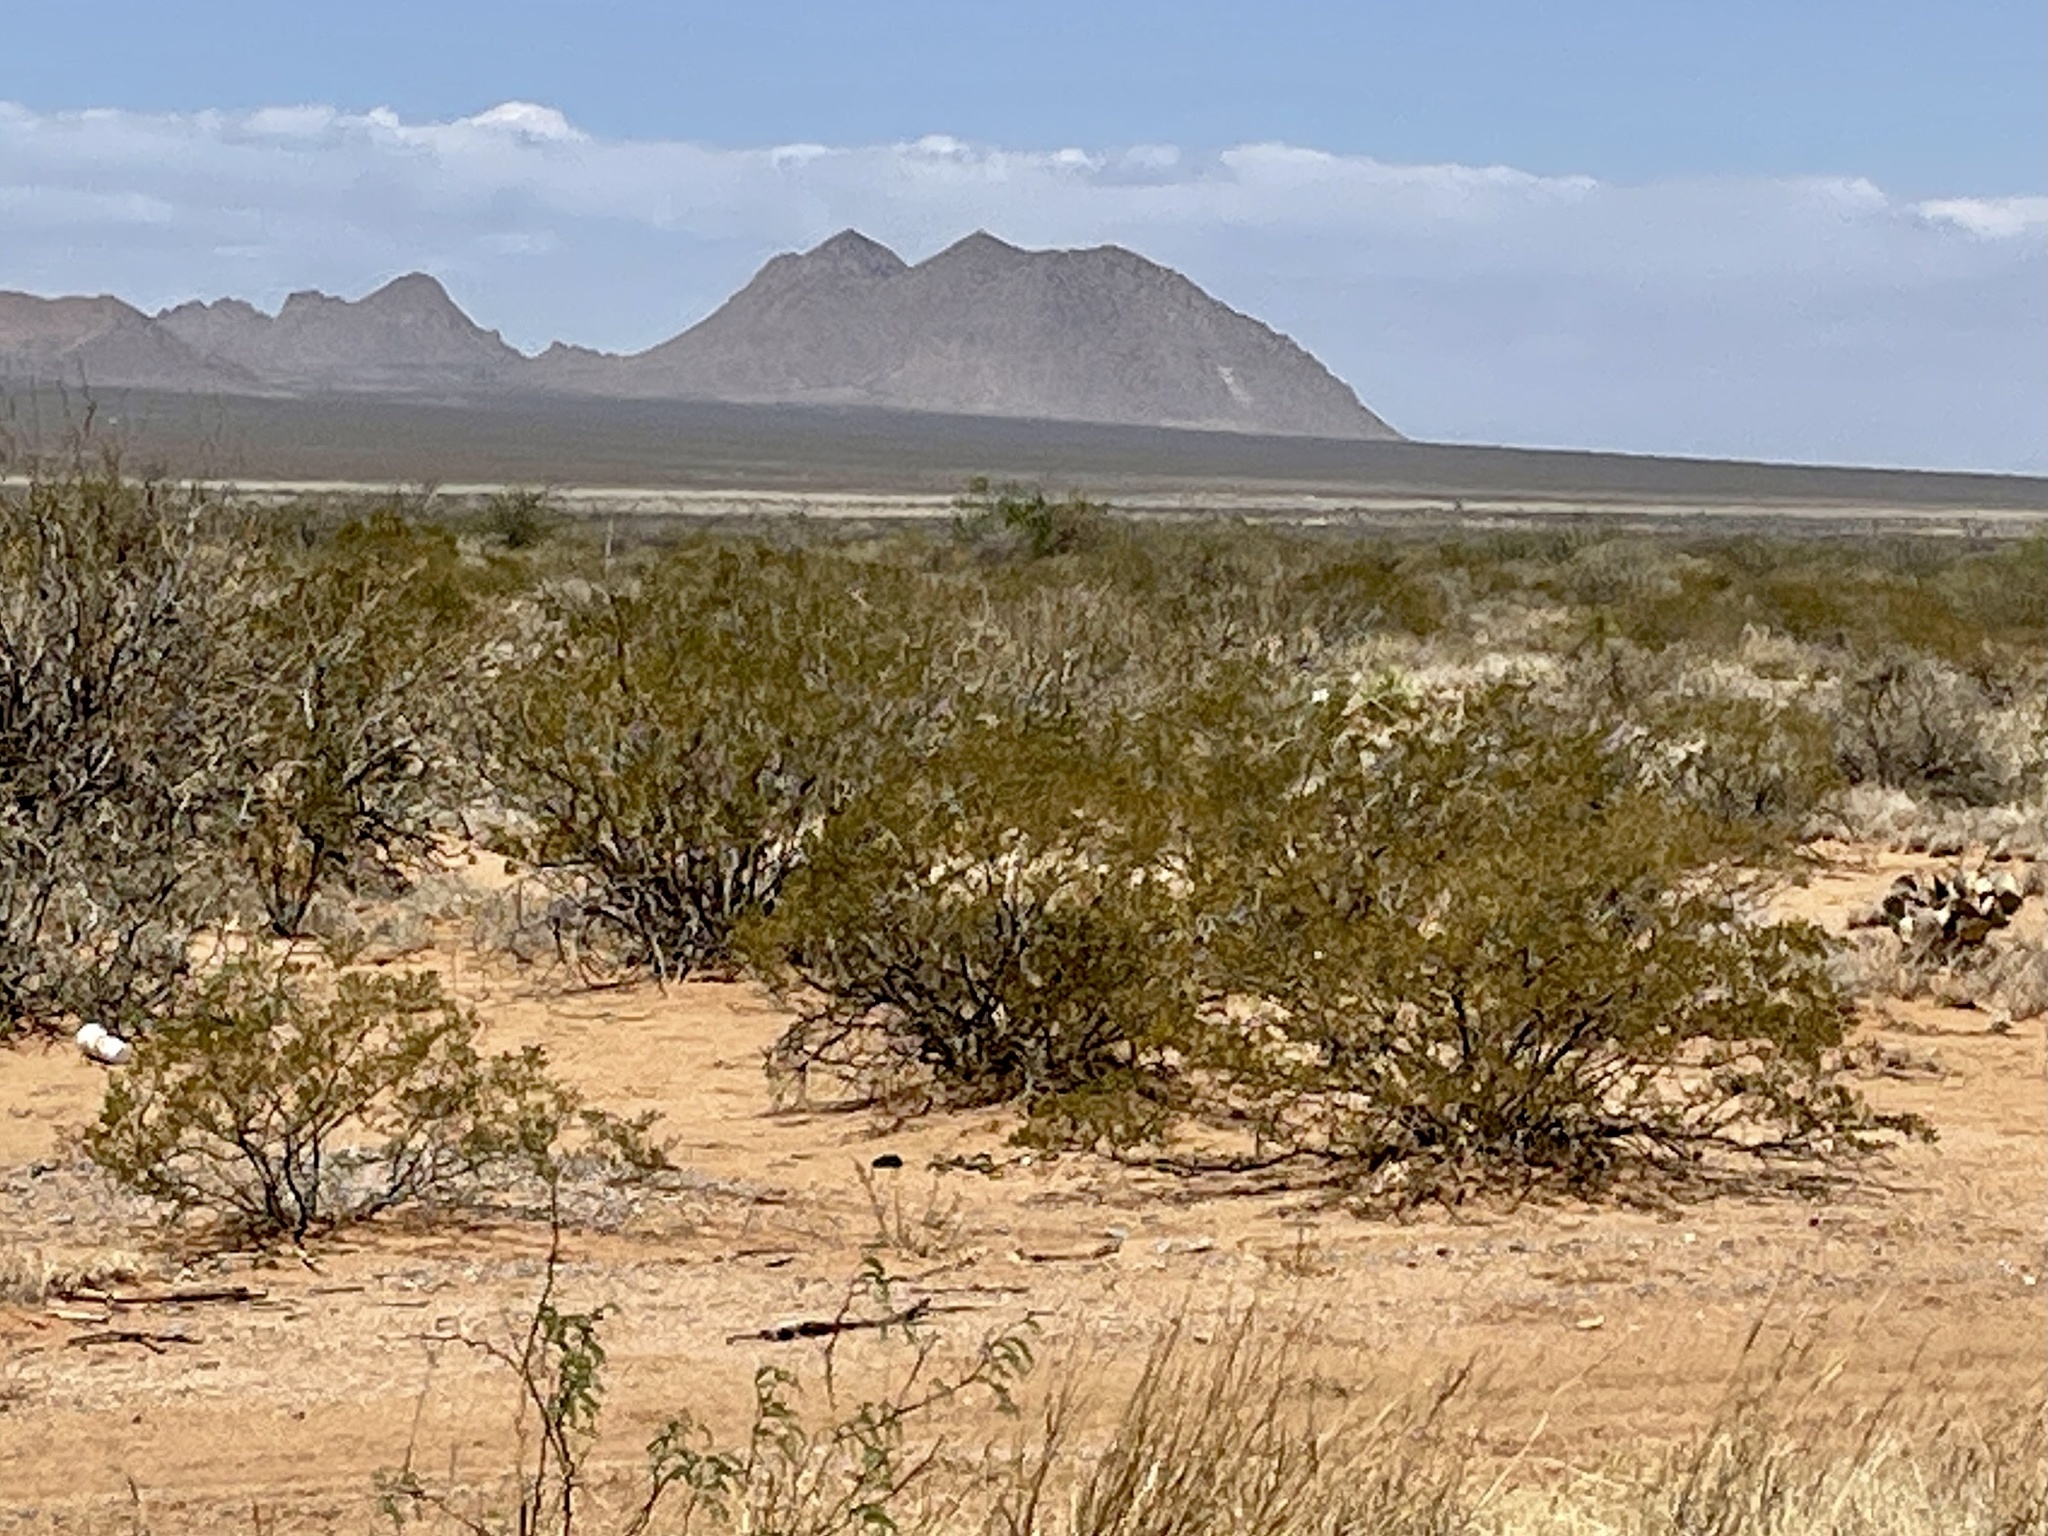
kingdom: Plantae
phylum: Tracheophyta
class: Magnoliopsida
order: Zygophyllales
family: Zygophyllaceae
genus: Larrea
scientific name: Larrea tridentata
